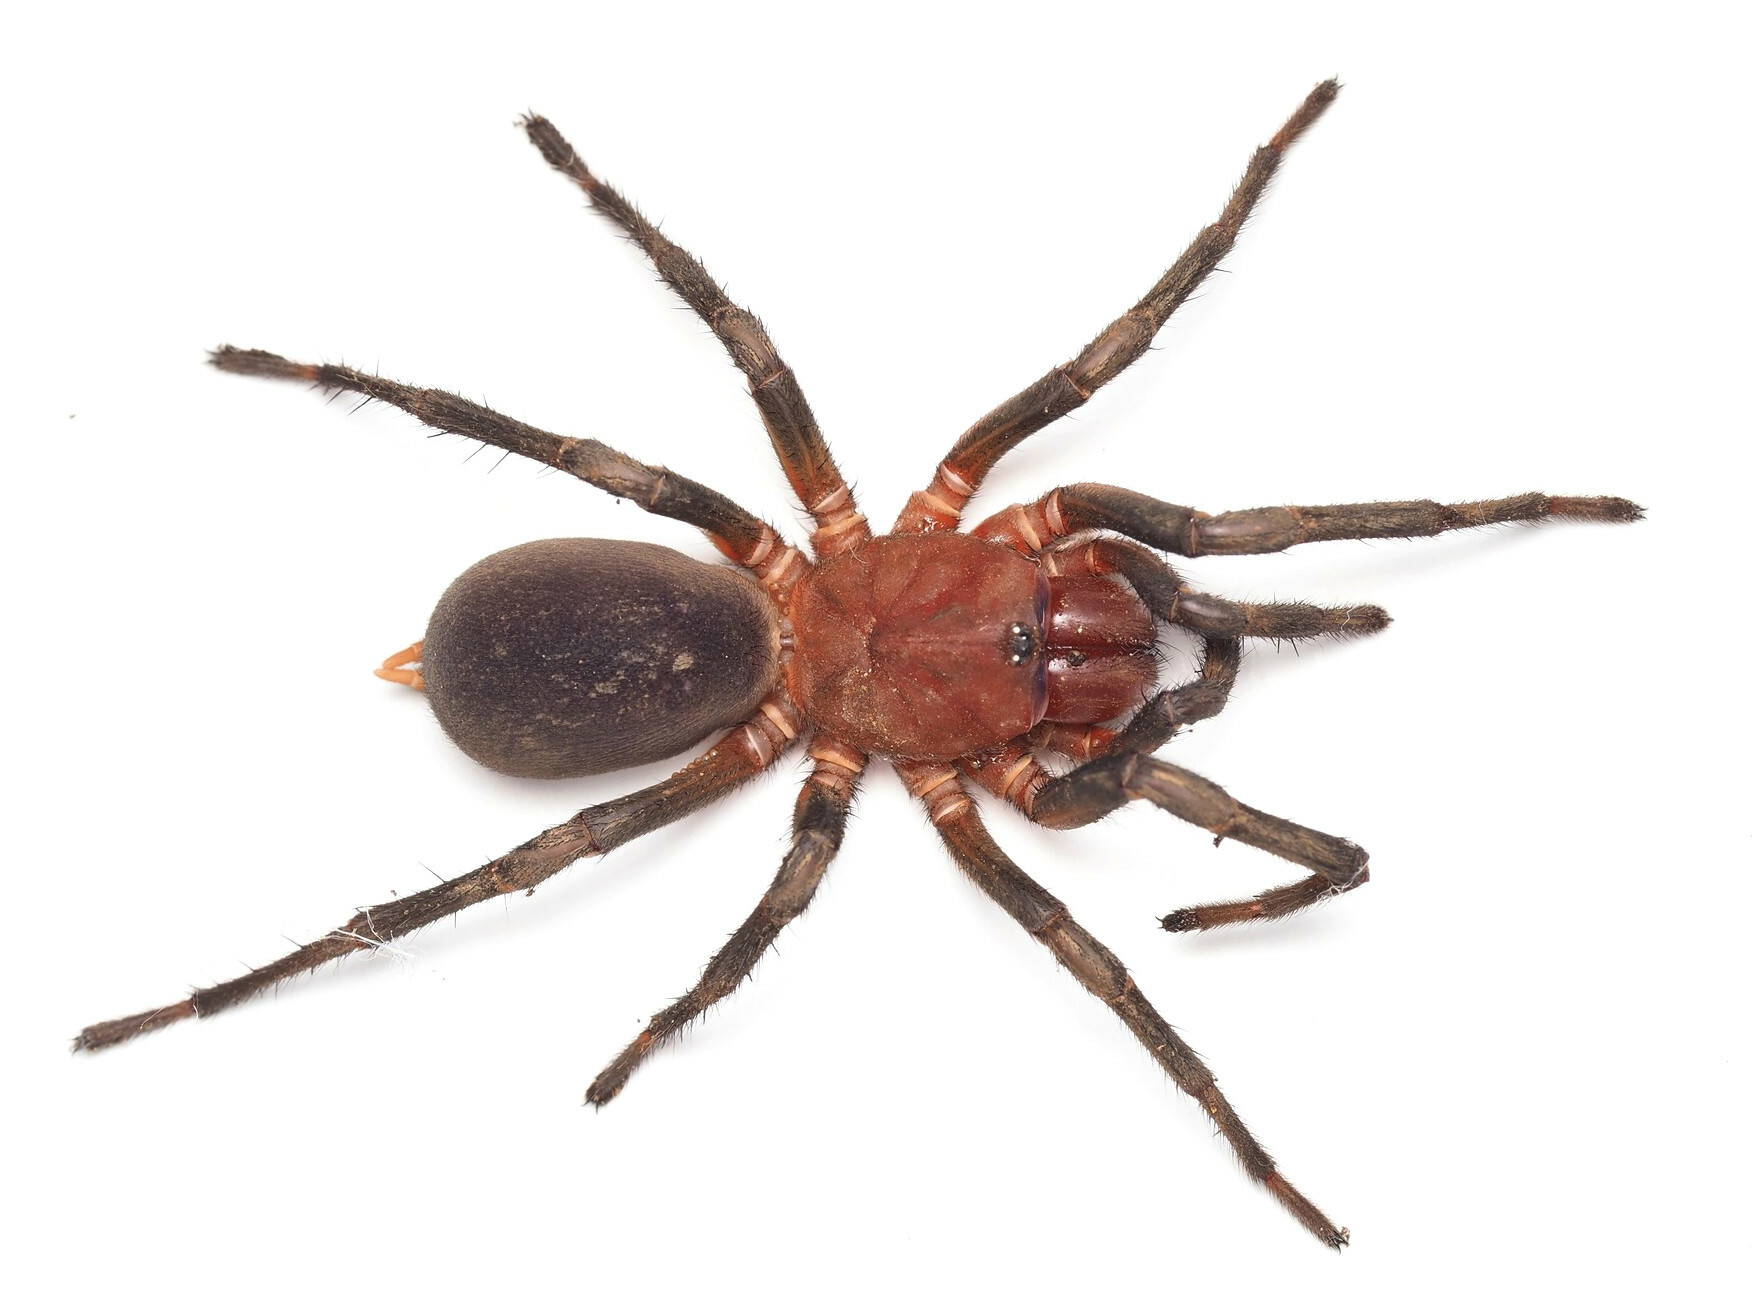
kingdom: Animalia
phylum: Arthropoda
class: Arachnida
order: Araneae
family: Microstigmatidae
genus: Xamiatus
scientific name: Xamiatus rubrifrons
